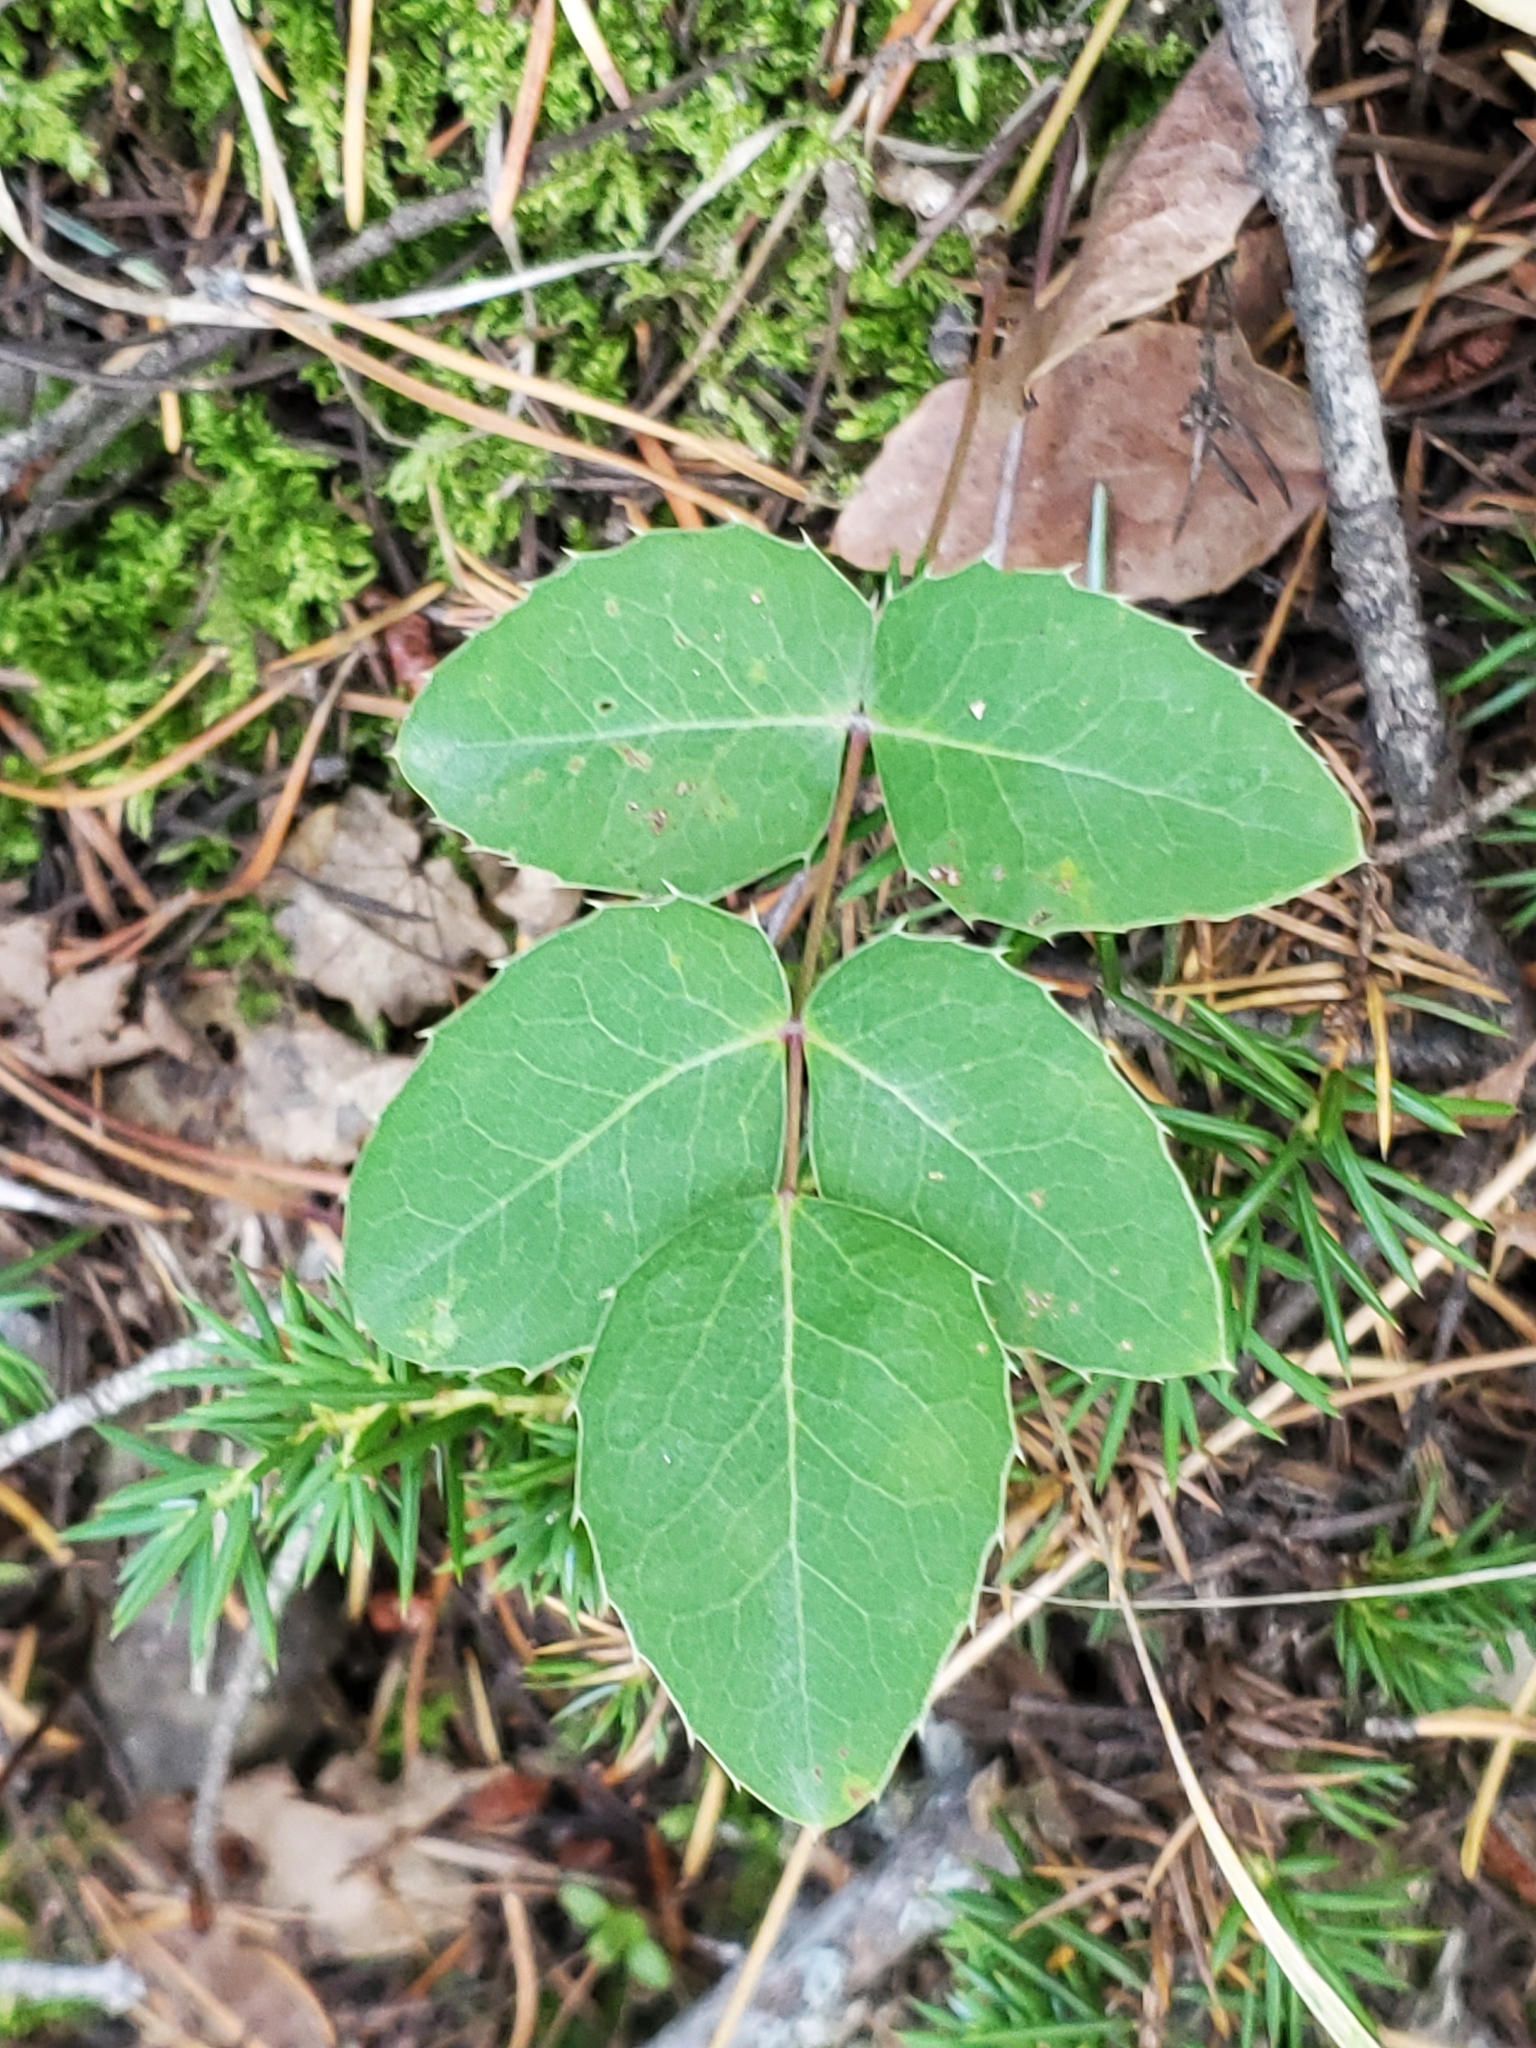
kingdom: Plantae
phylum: Tracheophyta
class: Magnoliopsida
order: Ranunculales
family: Berberidaceae
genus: Mahonia
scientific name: Mahonia repens
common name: Creeping oregon-grape
